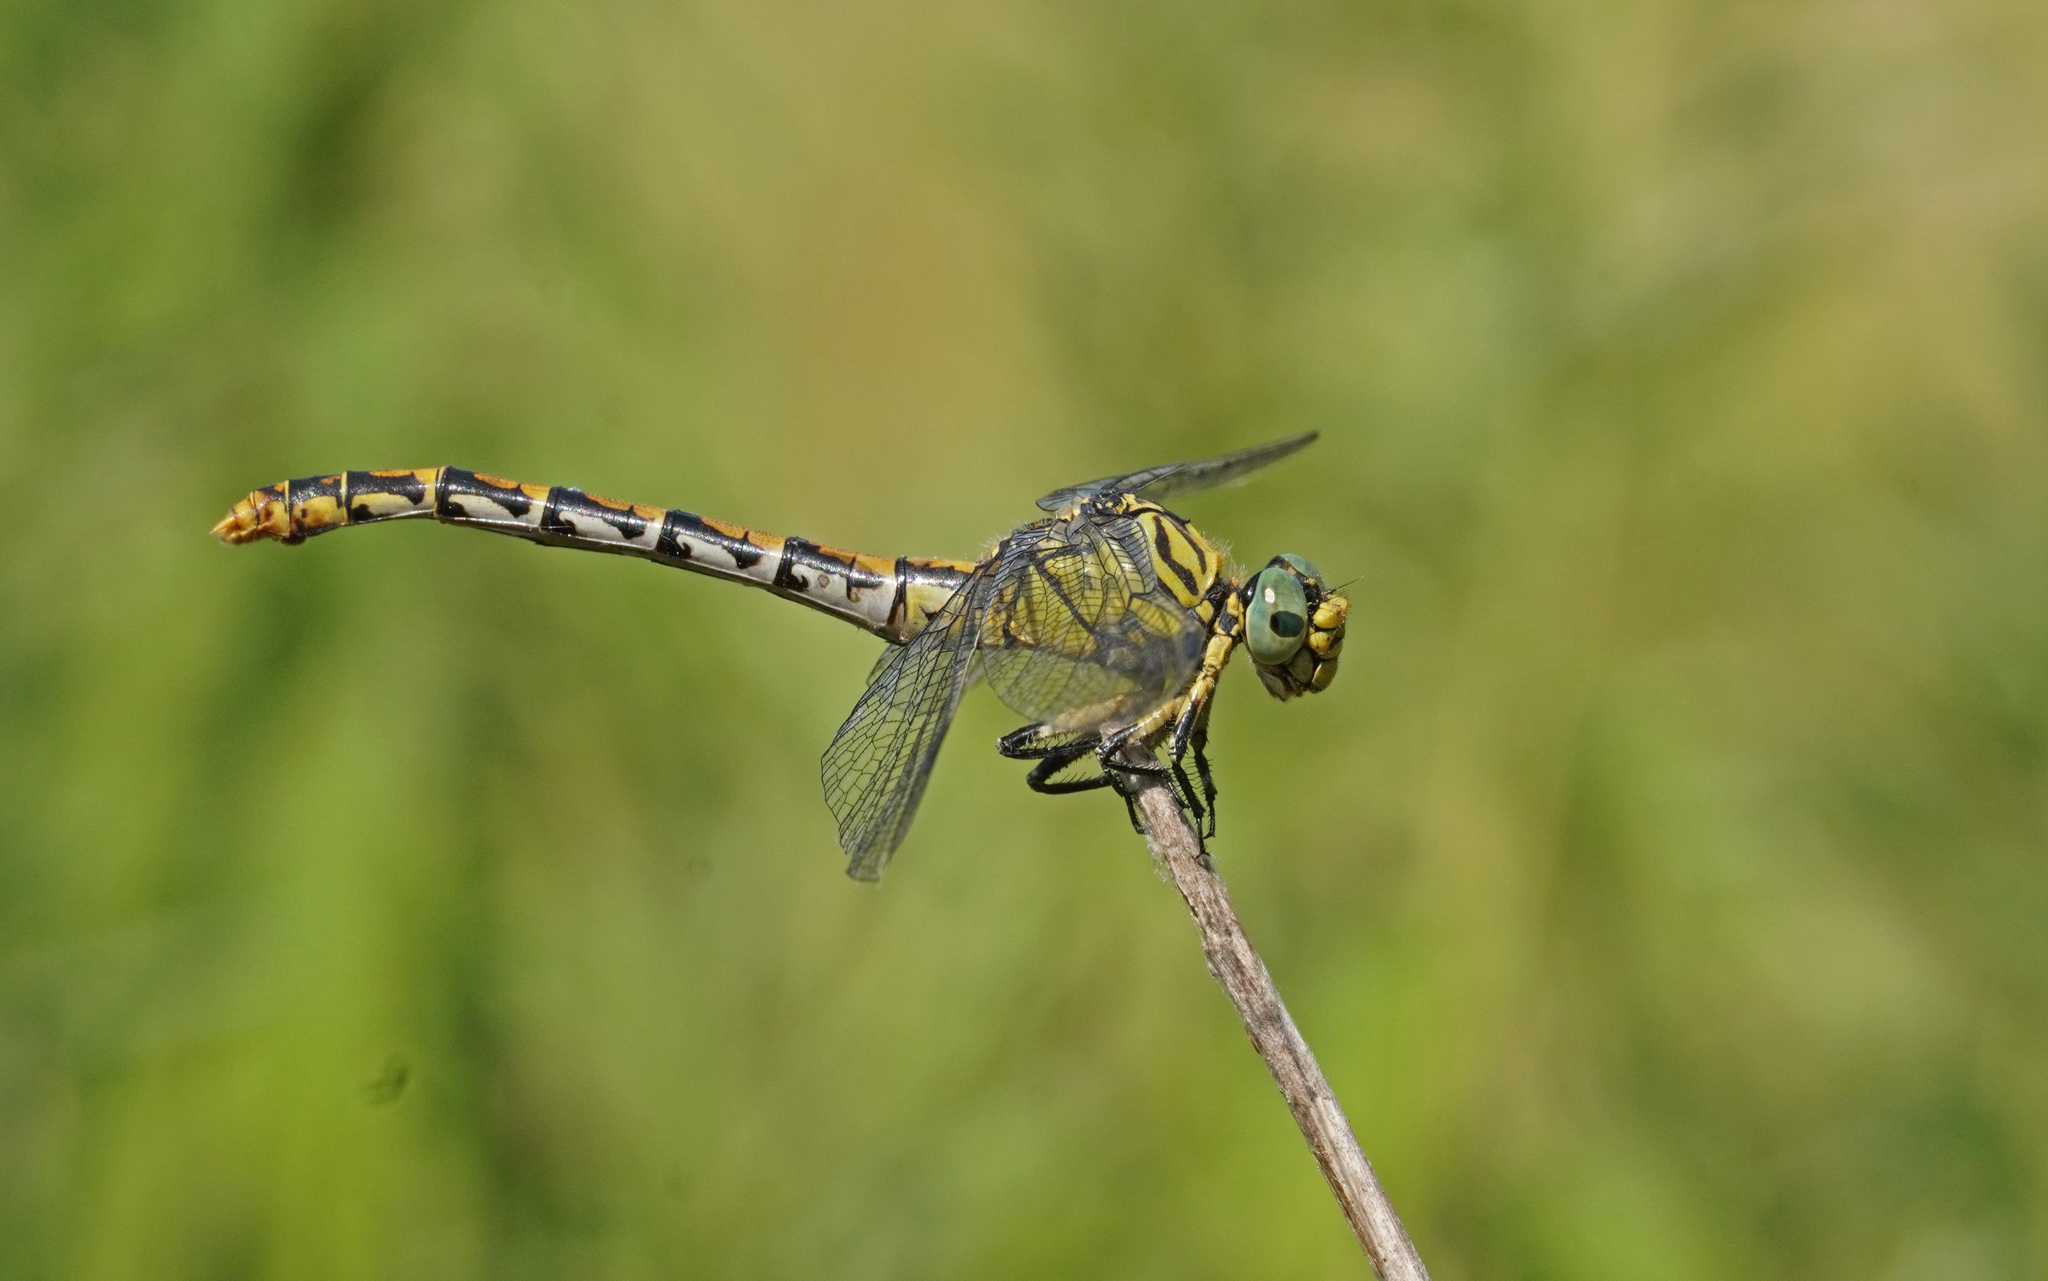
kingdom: Animalia
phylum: Arthropoda
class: Insecta
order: Odonata
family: Gomphidae
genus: Onychogomphus
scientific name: Onychogomphus forcipatus
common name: Small pincertail
